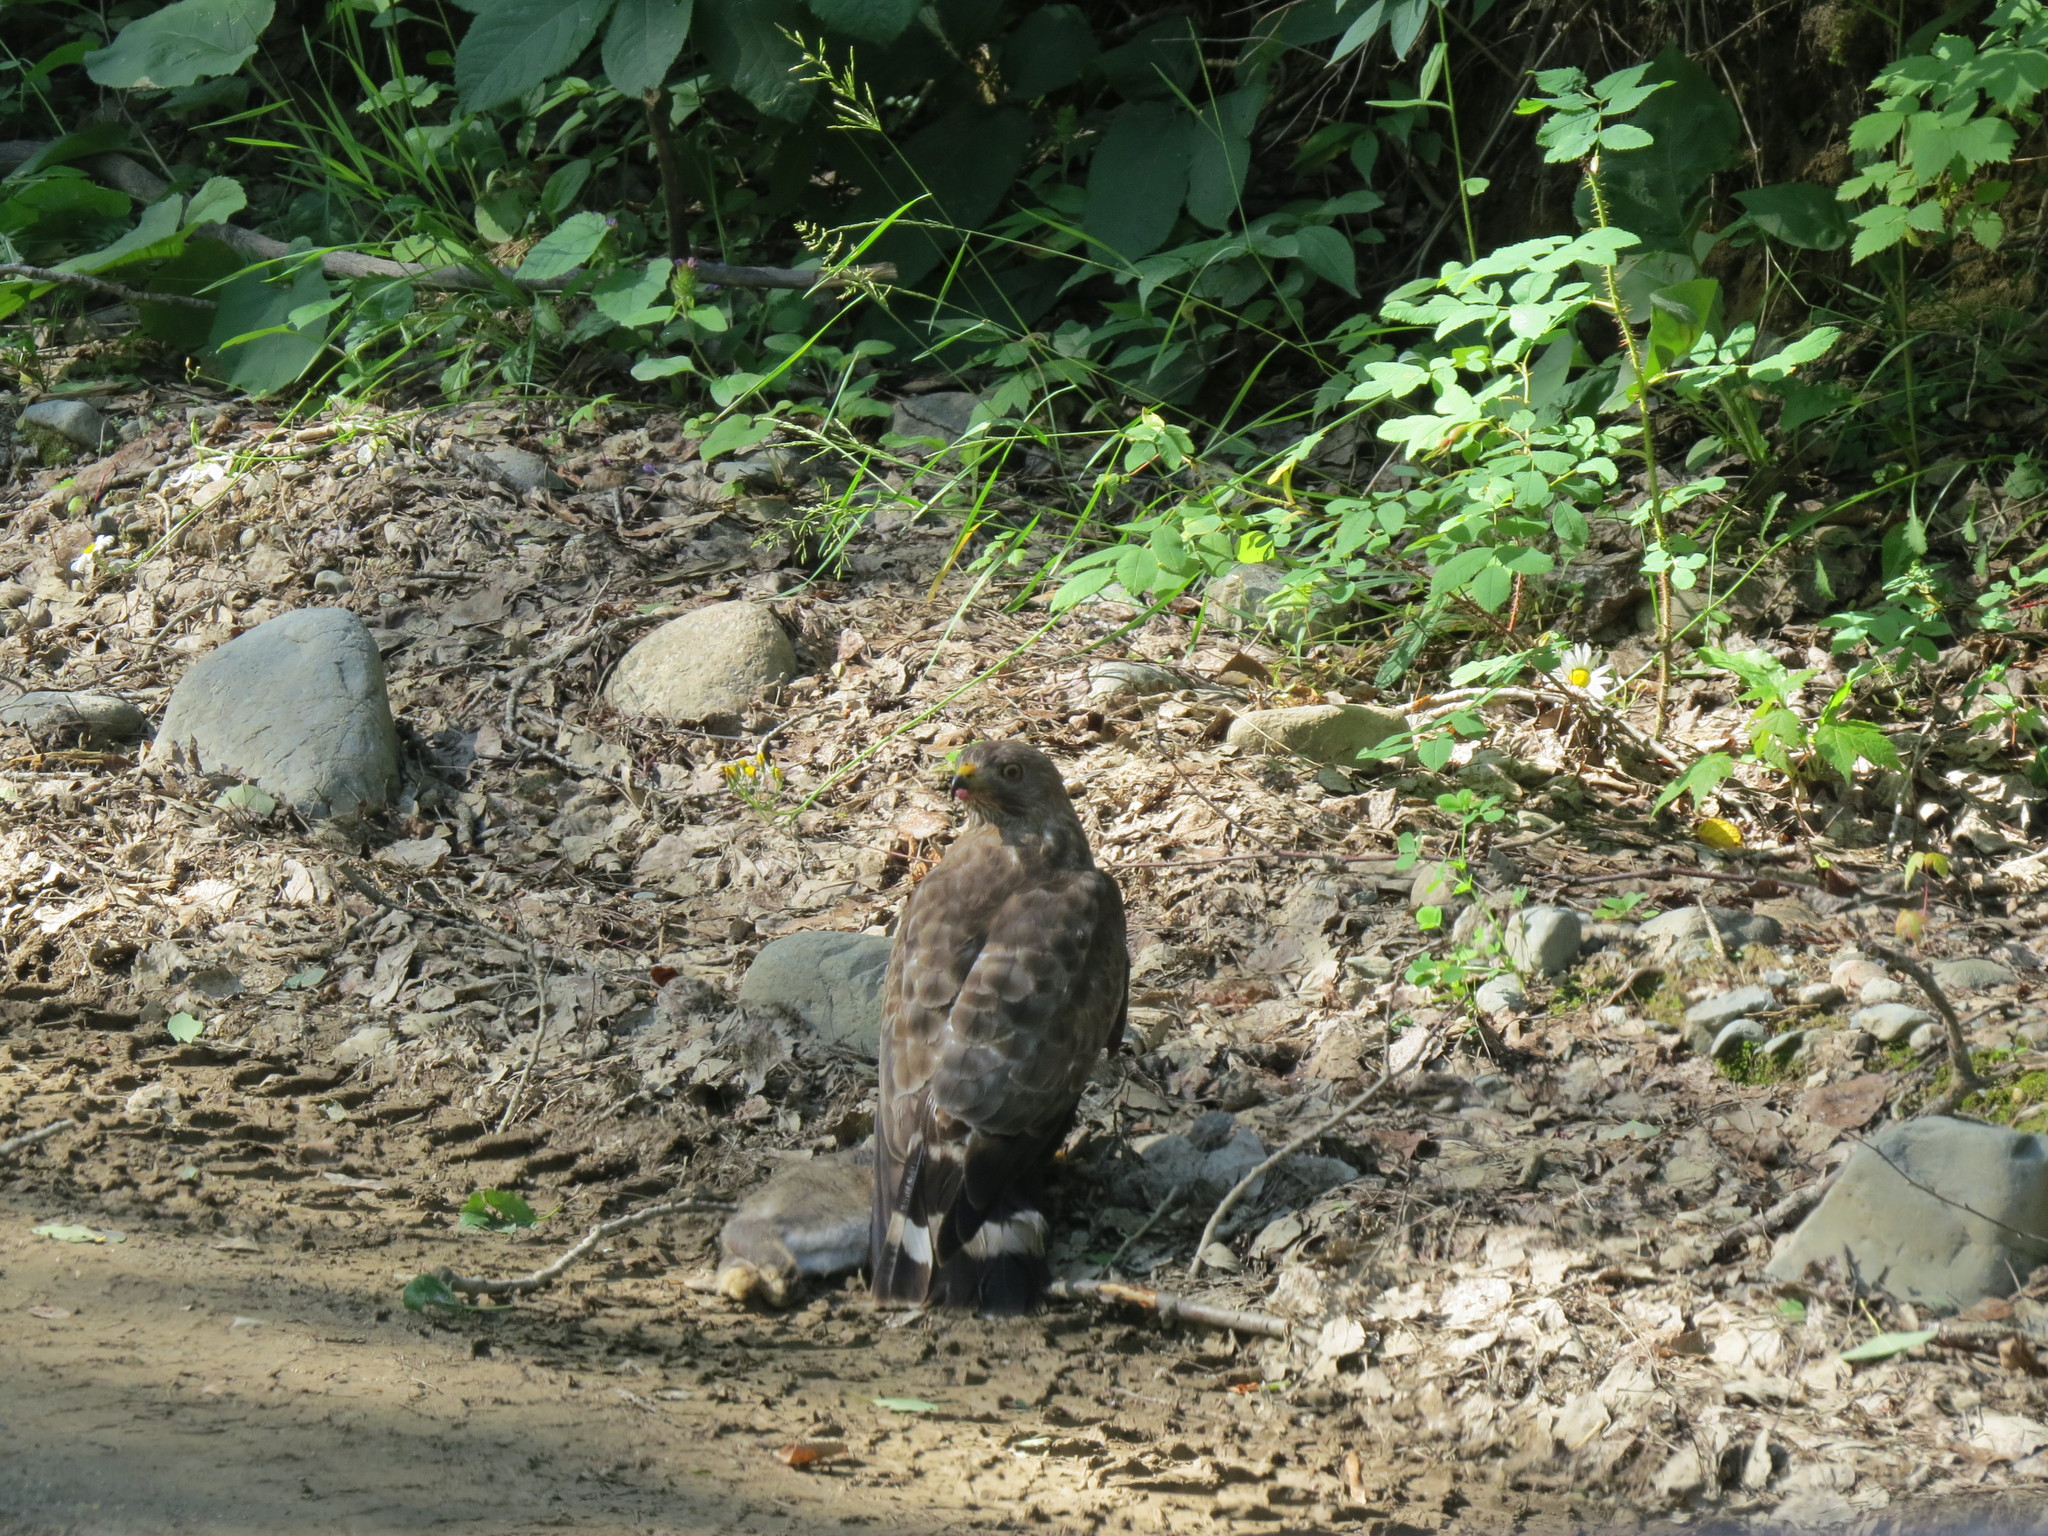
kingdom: Animalia
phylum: Chordata
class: Mammalia
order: Lagomorpha
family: Leporidae
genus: Lepus
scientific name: Lepus americanus
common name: Snowshoe hare
